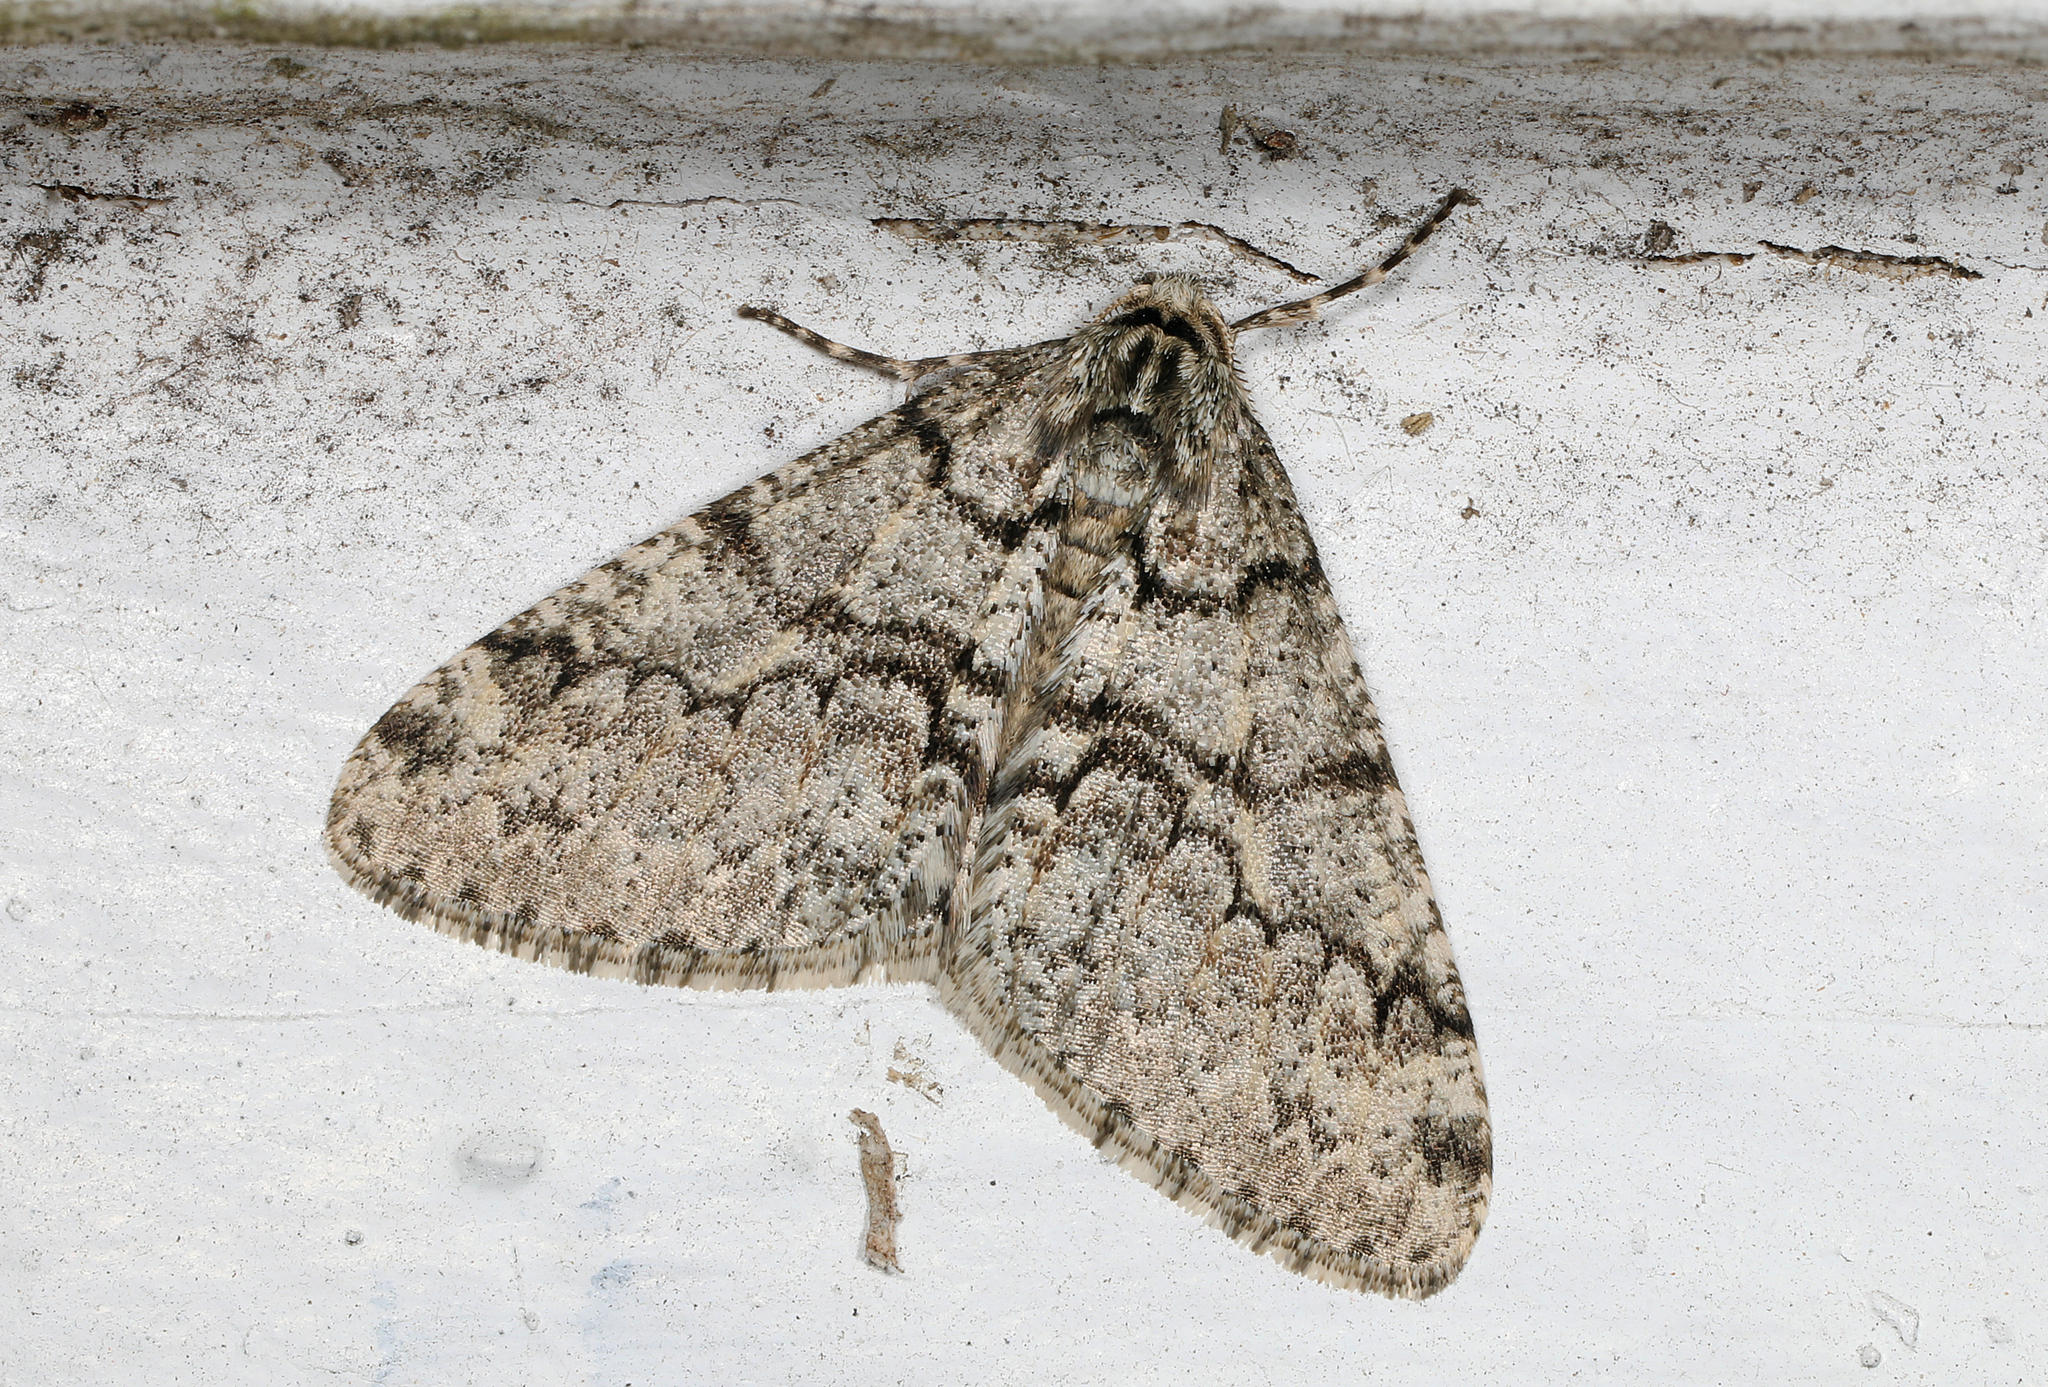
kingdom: Animalia
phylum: Arthropoda
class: Insecta
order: Lepidoptera
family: Geometridae
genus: Phigalia
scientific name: Phigalia denticulata
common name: Toothed phigalia
